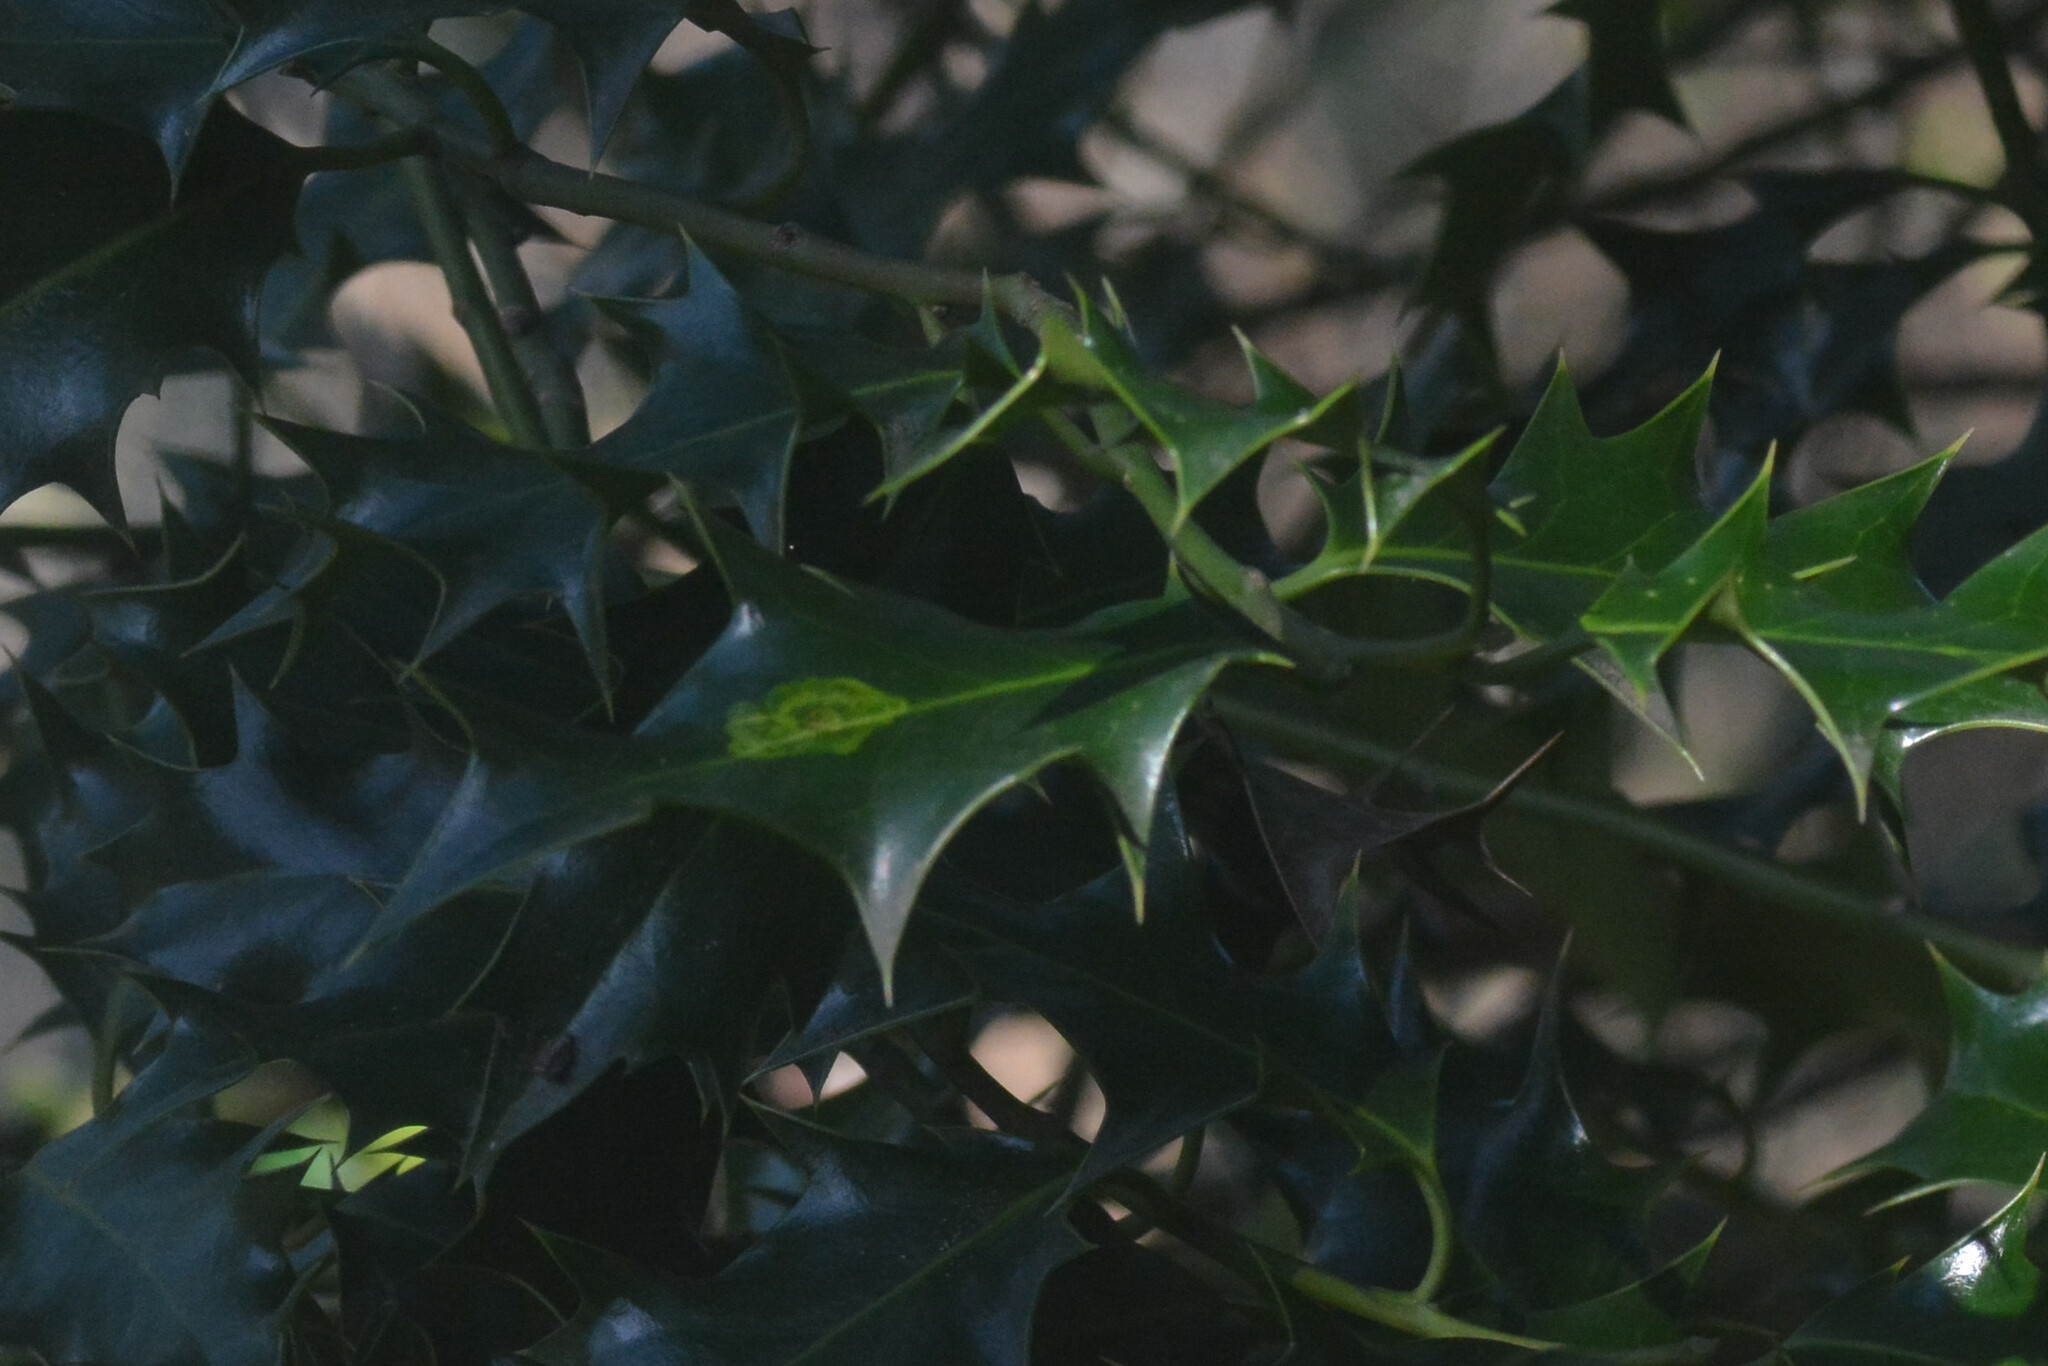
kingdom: Animalia
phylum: Arthropoda
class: Insecta
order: Diptera
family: Agromyzidae
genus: Phytomyza
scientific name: Phytomyza ilicis
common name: Holly leafminer
